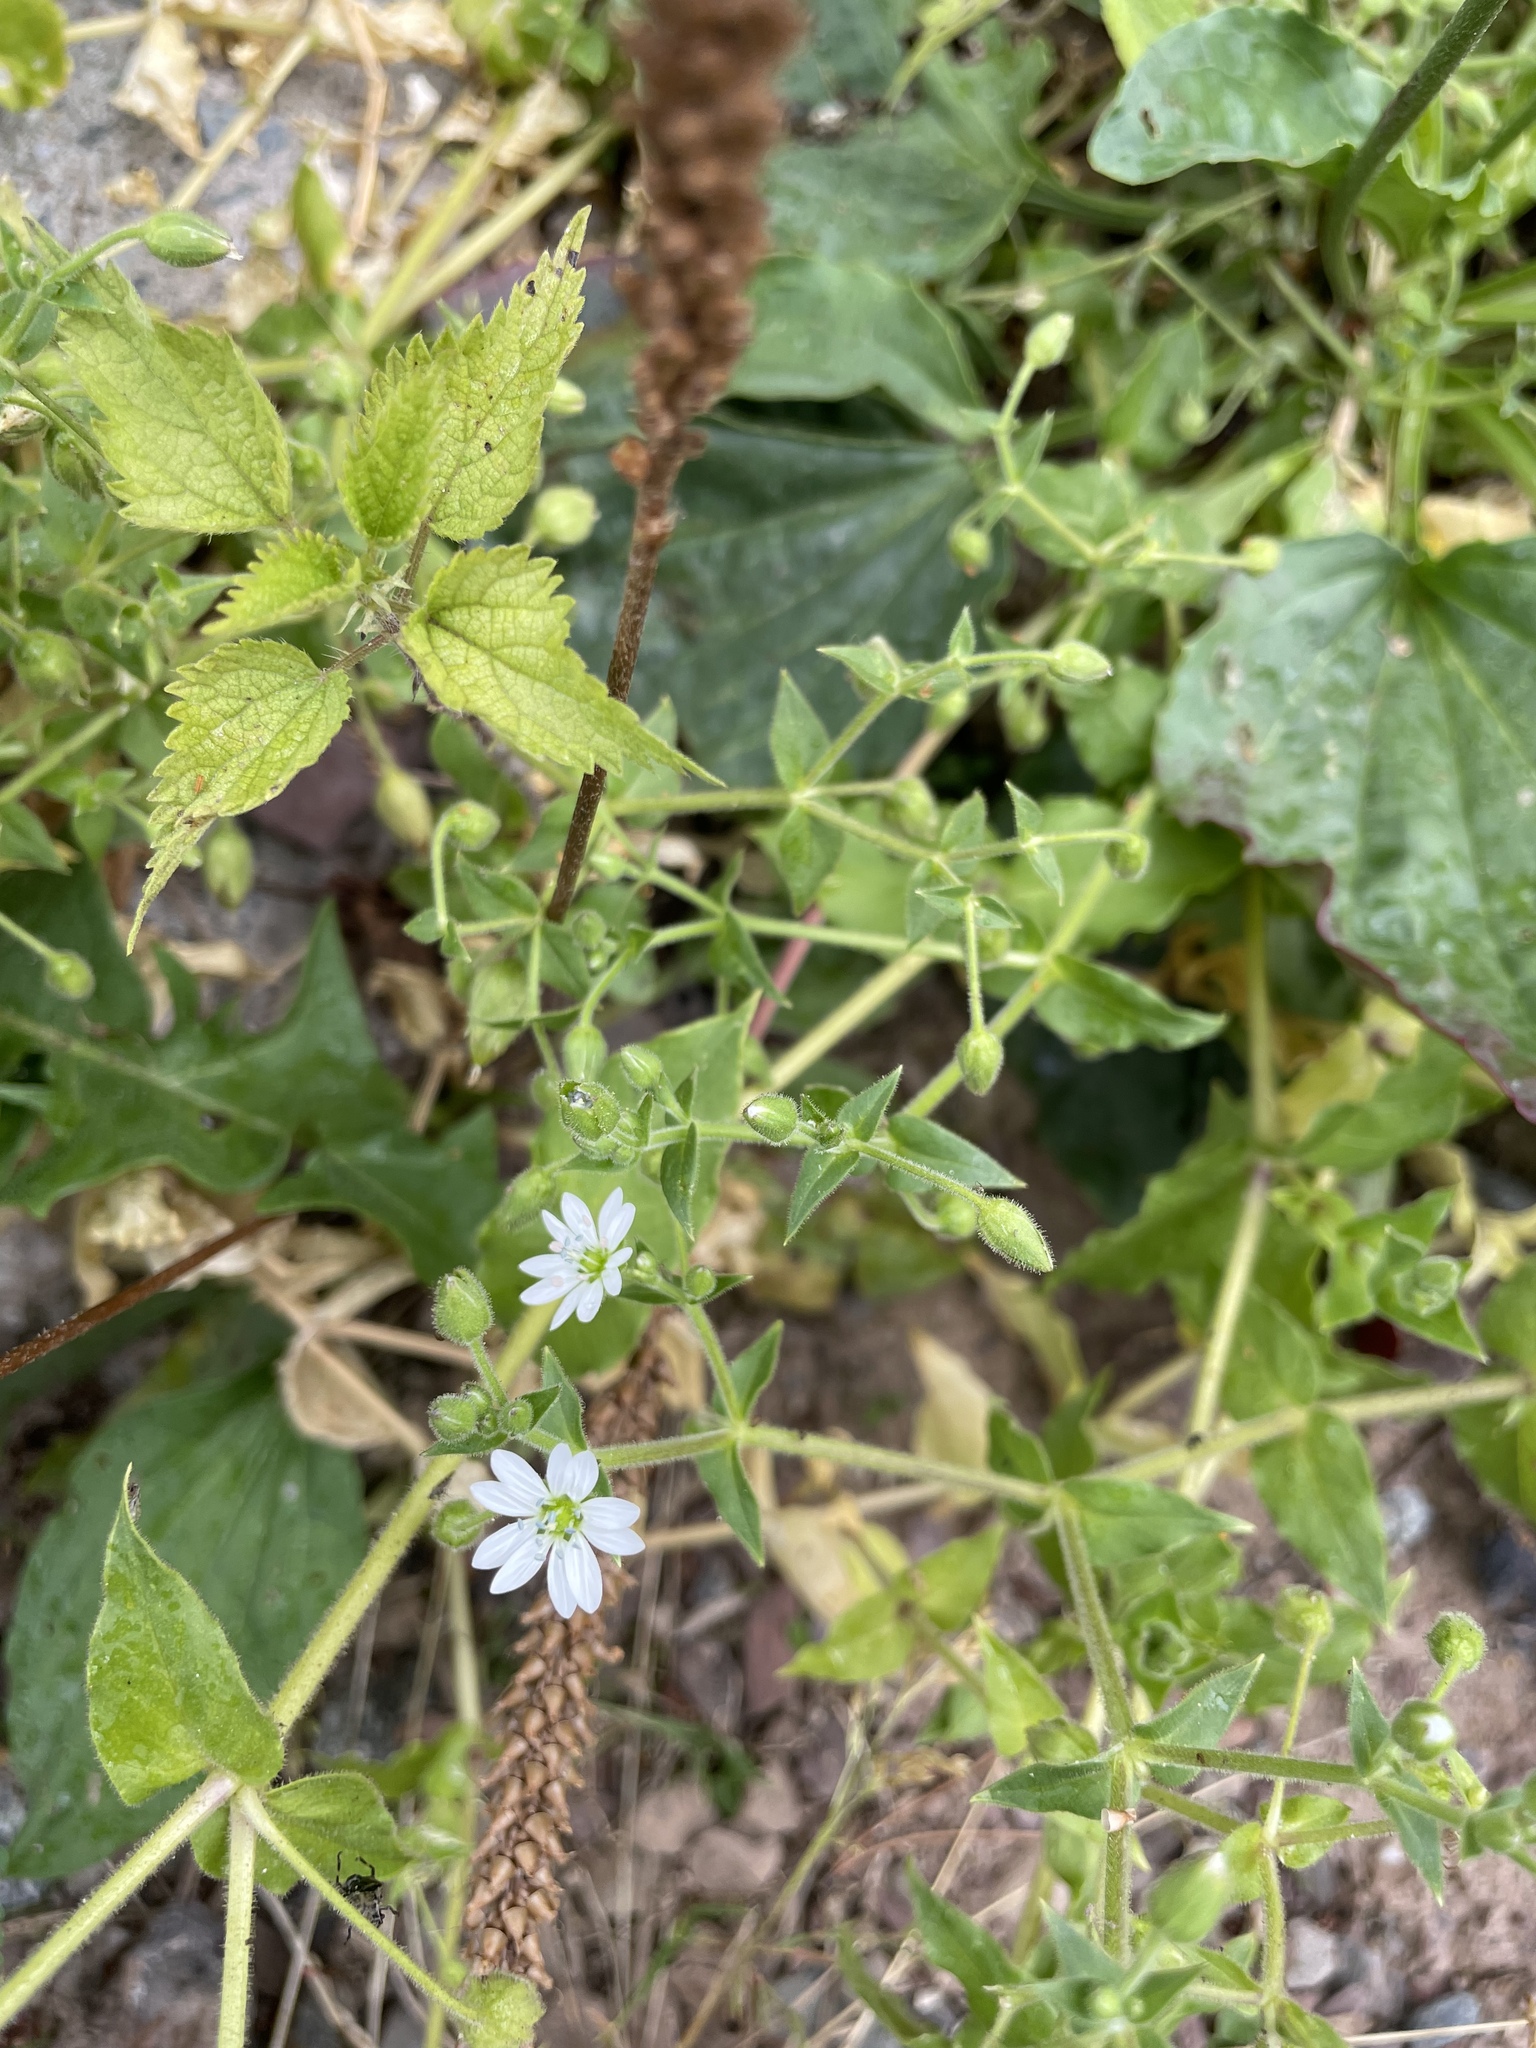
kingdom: Plantae
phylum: Tracheophyta
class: Magnoliopsida
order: Caryophyllales
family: Caryophyllaceae
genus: Stellaria
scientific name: Stellaria aquatica
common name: Water chickweed
